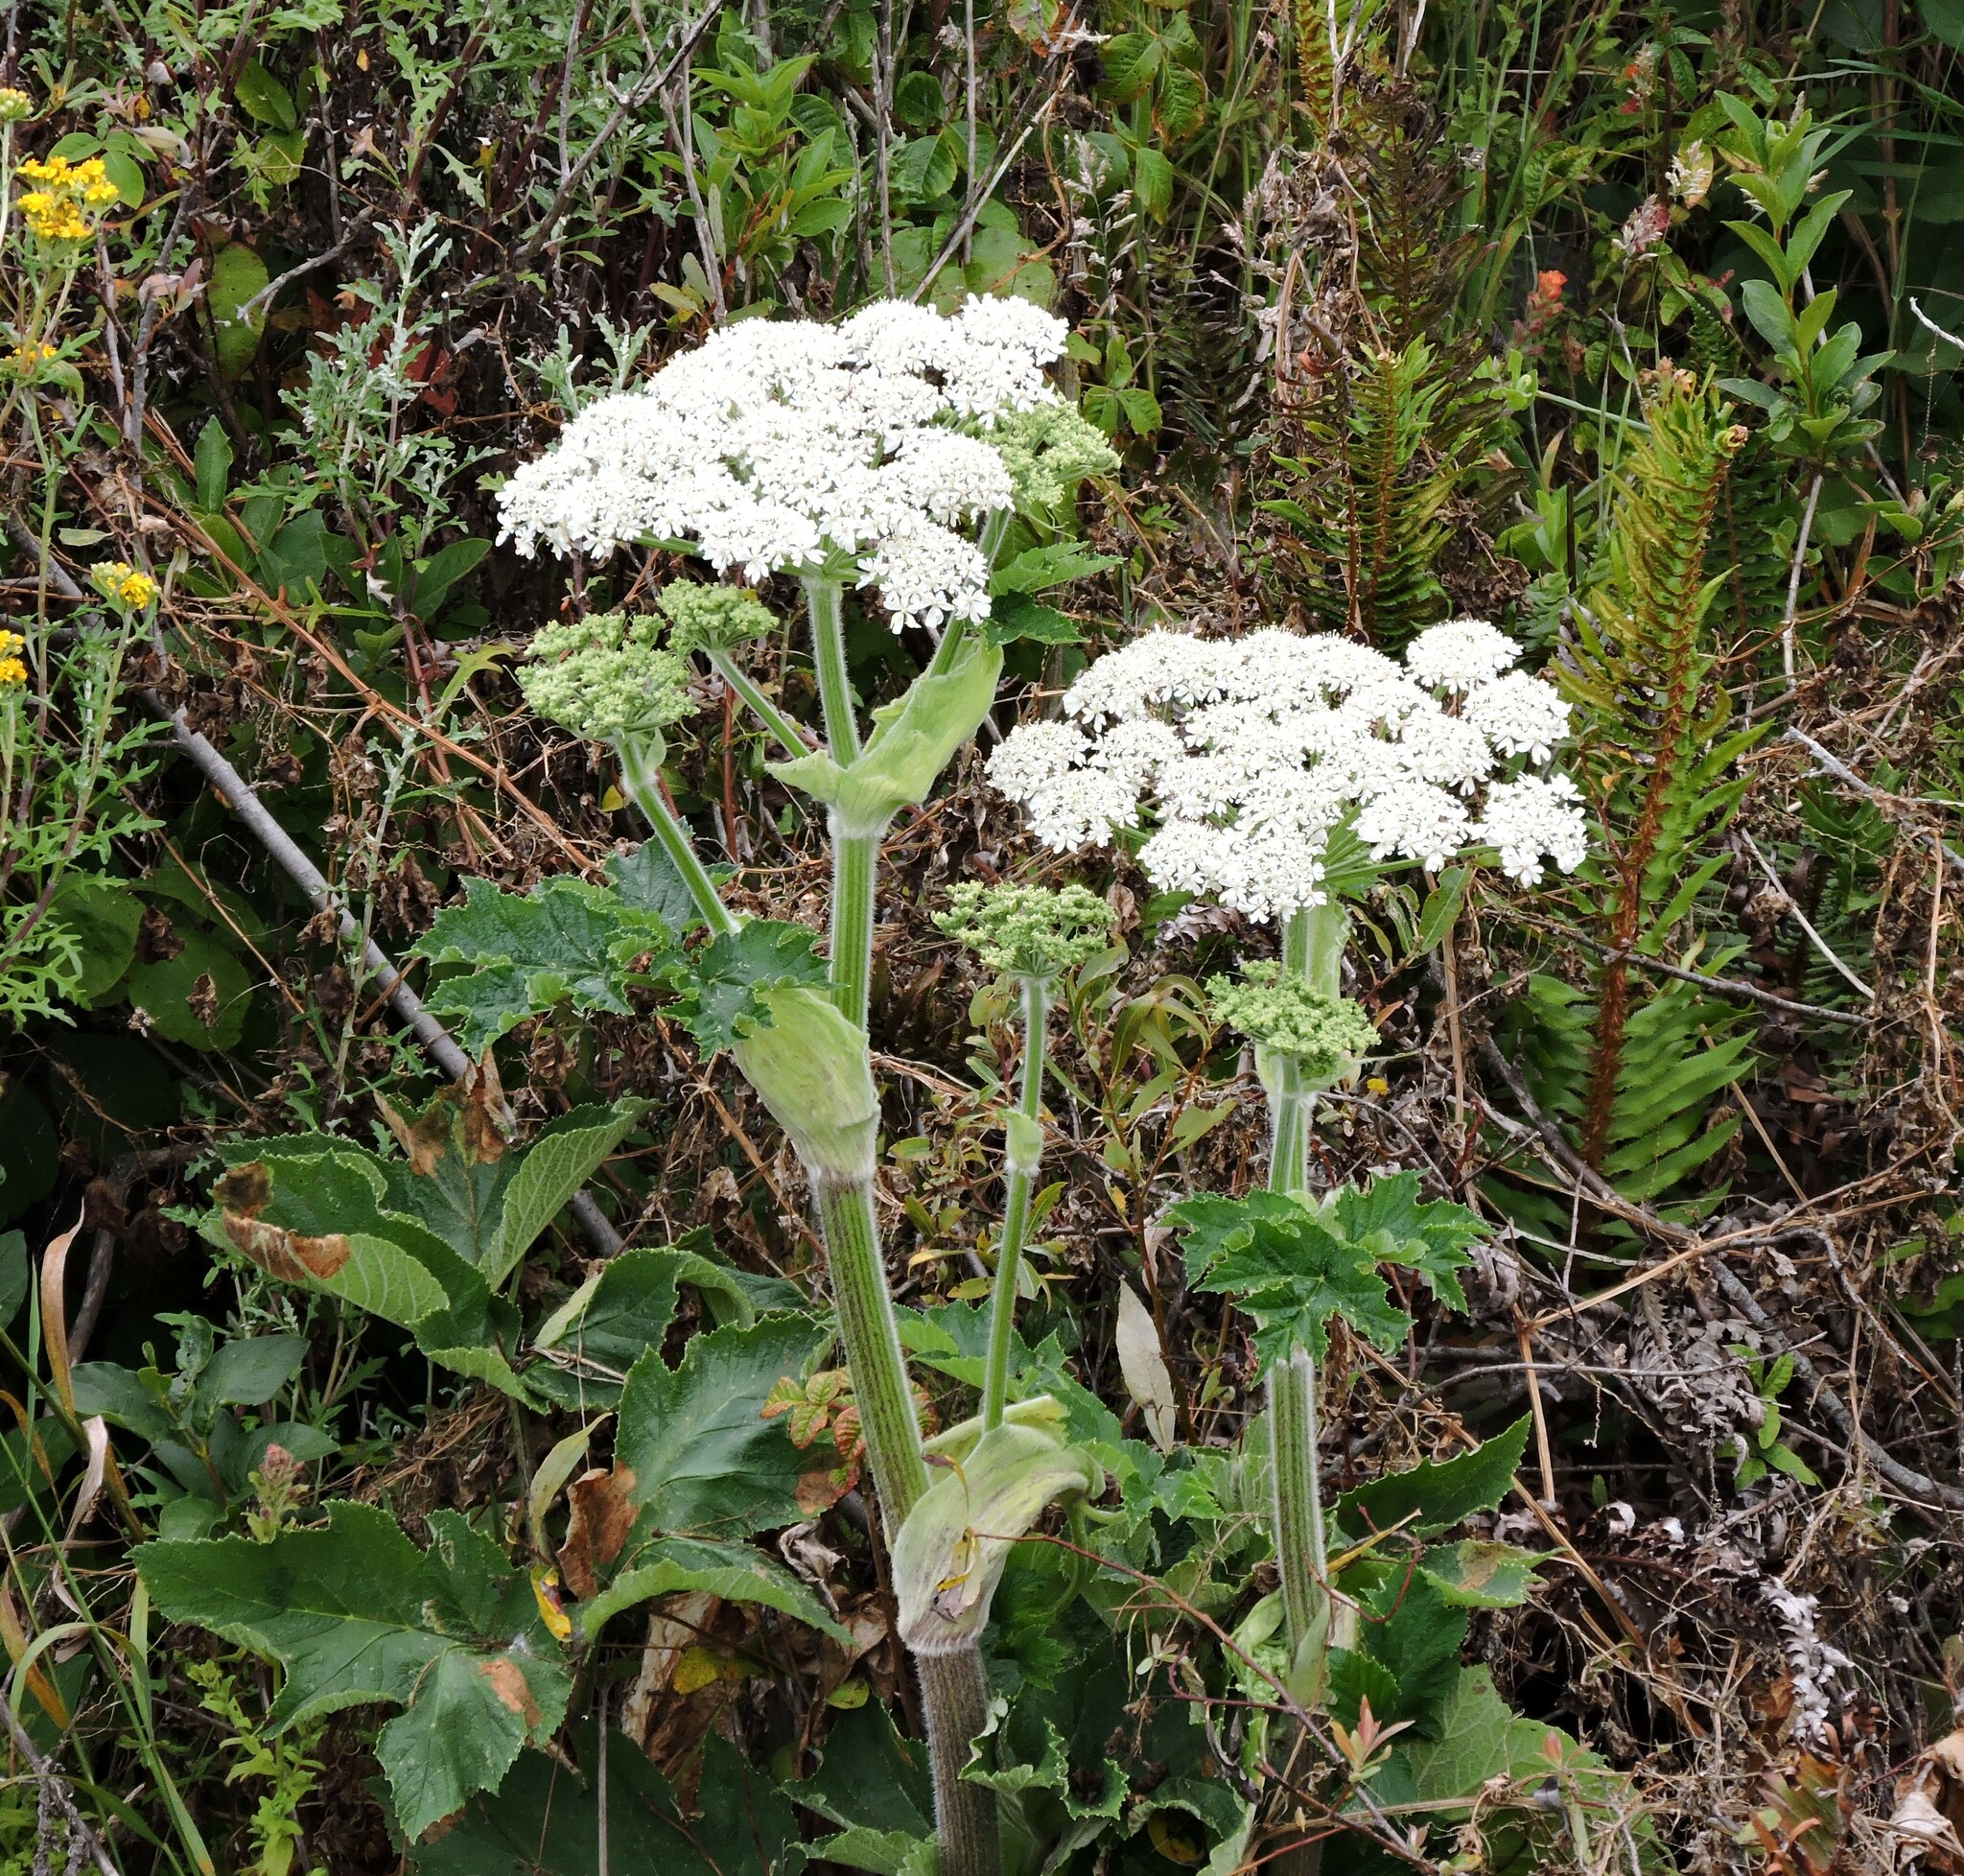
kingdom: Plantae
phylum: Tracheophyta
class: Magnoliopsida
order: Apiales
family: Apiaceae
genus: Heracleum
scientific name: Heracleum maximum
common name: American cow parsnip
